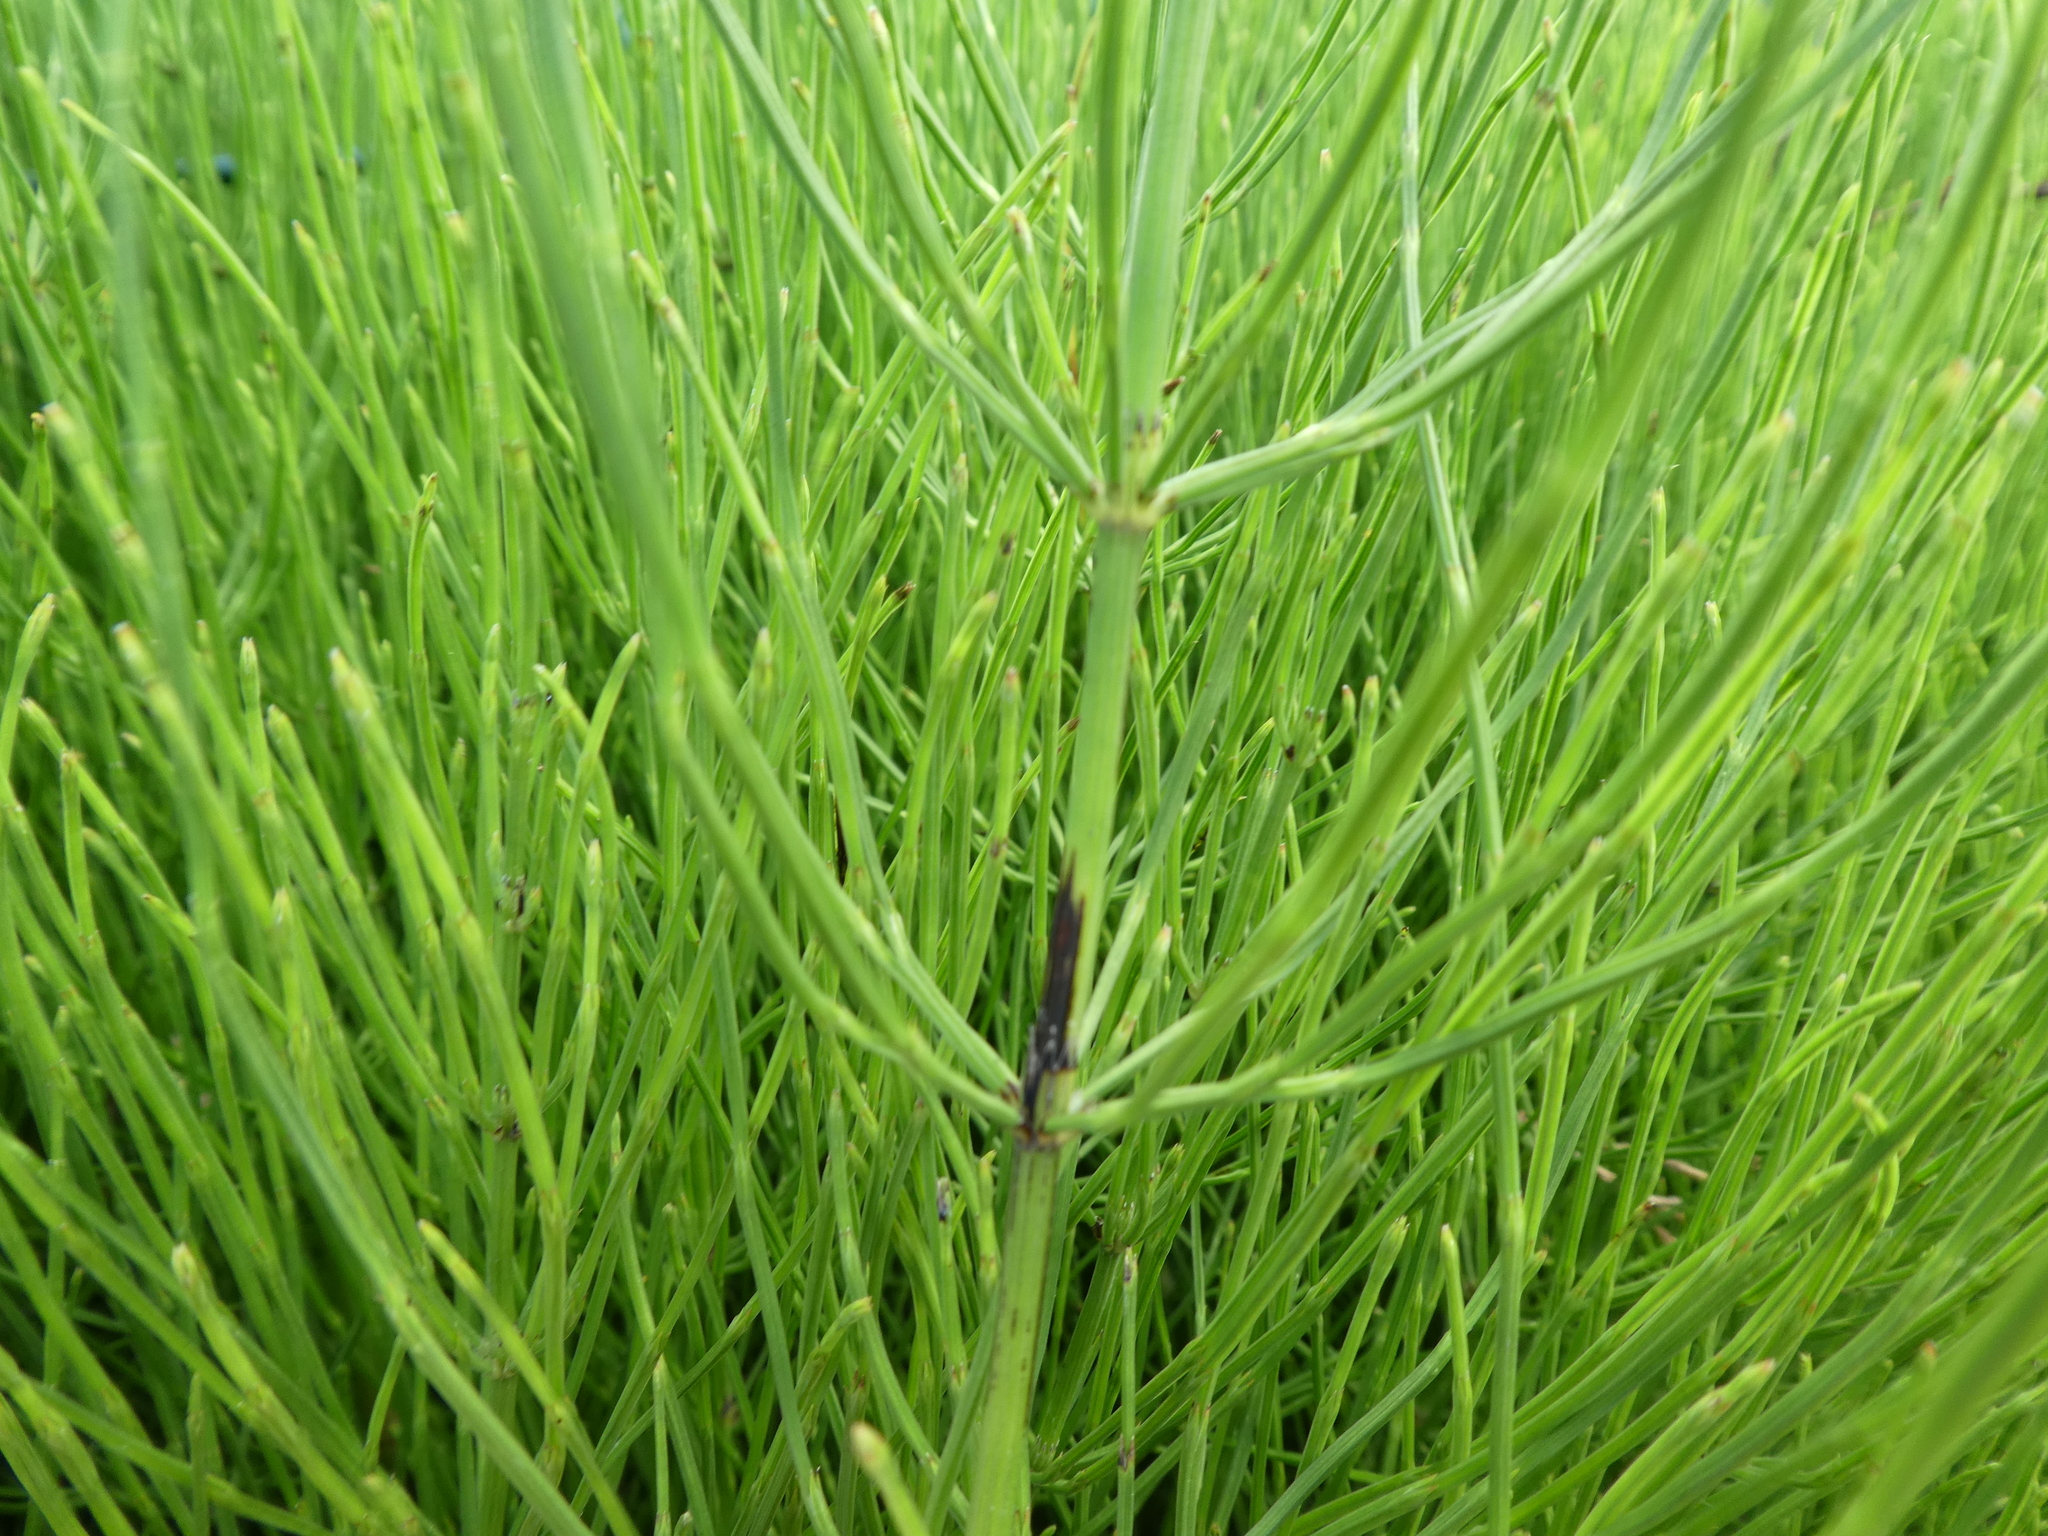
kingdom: Plantae
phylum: Tracheophyta
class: Polypodiopsida
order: Equisetales
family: Equisetaceae
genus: Equisetum
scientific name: Equisetum arvense
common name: Field horsetail
